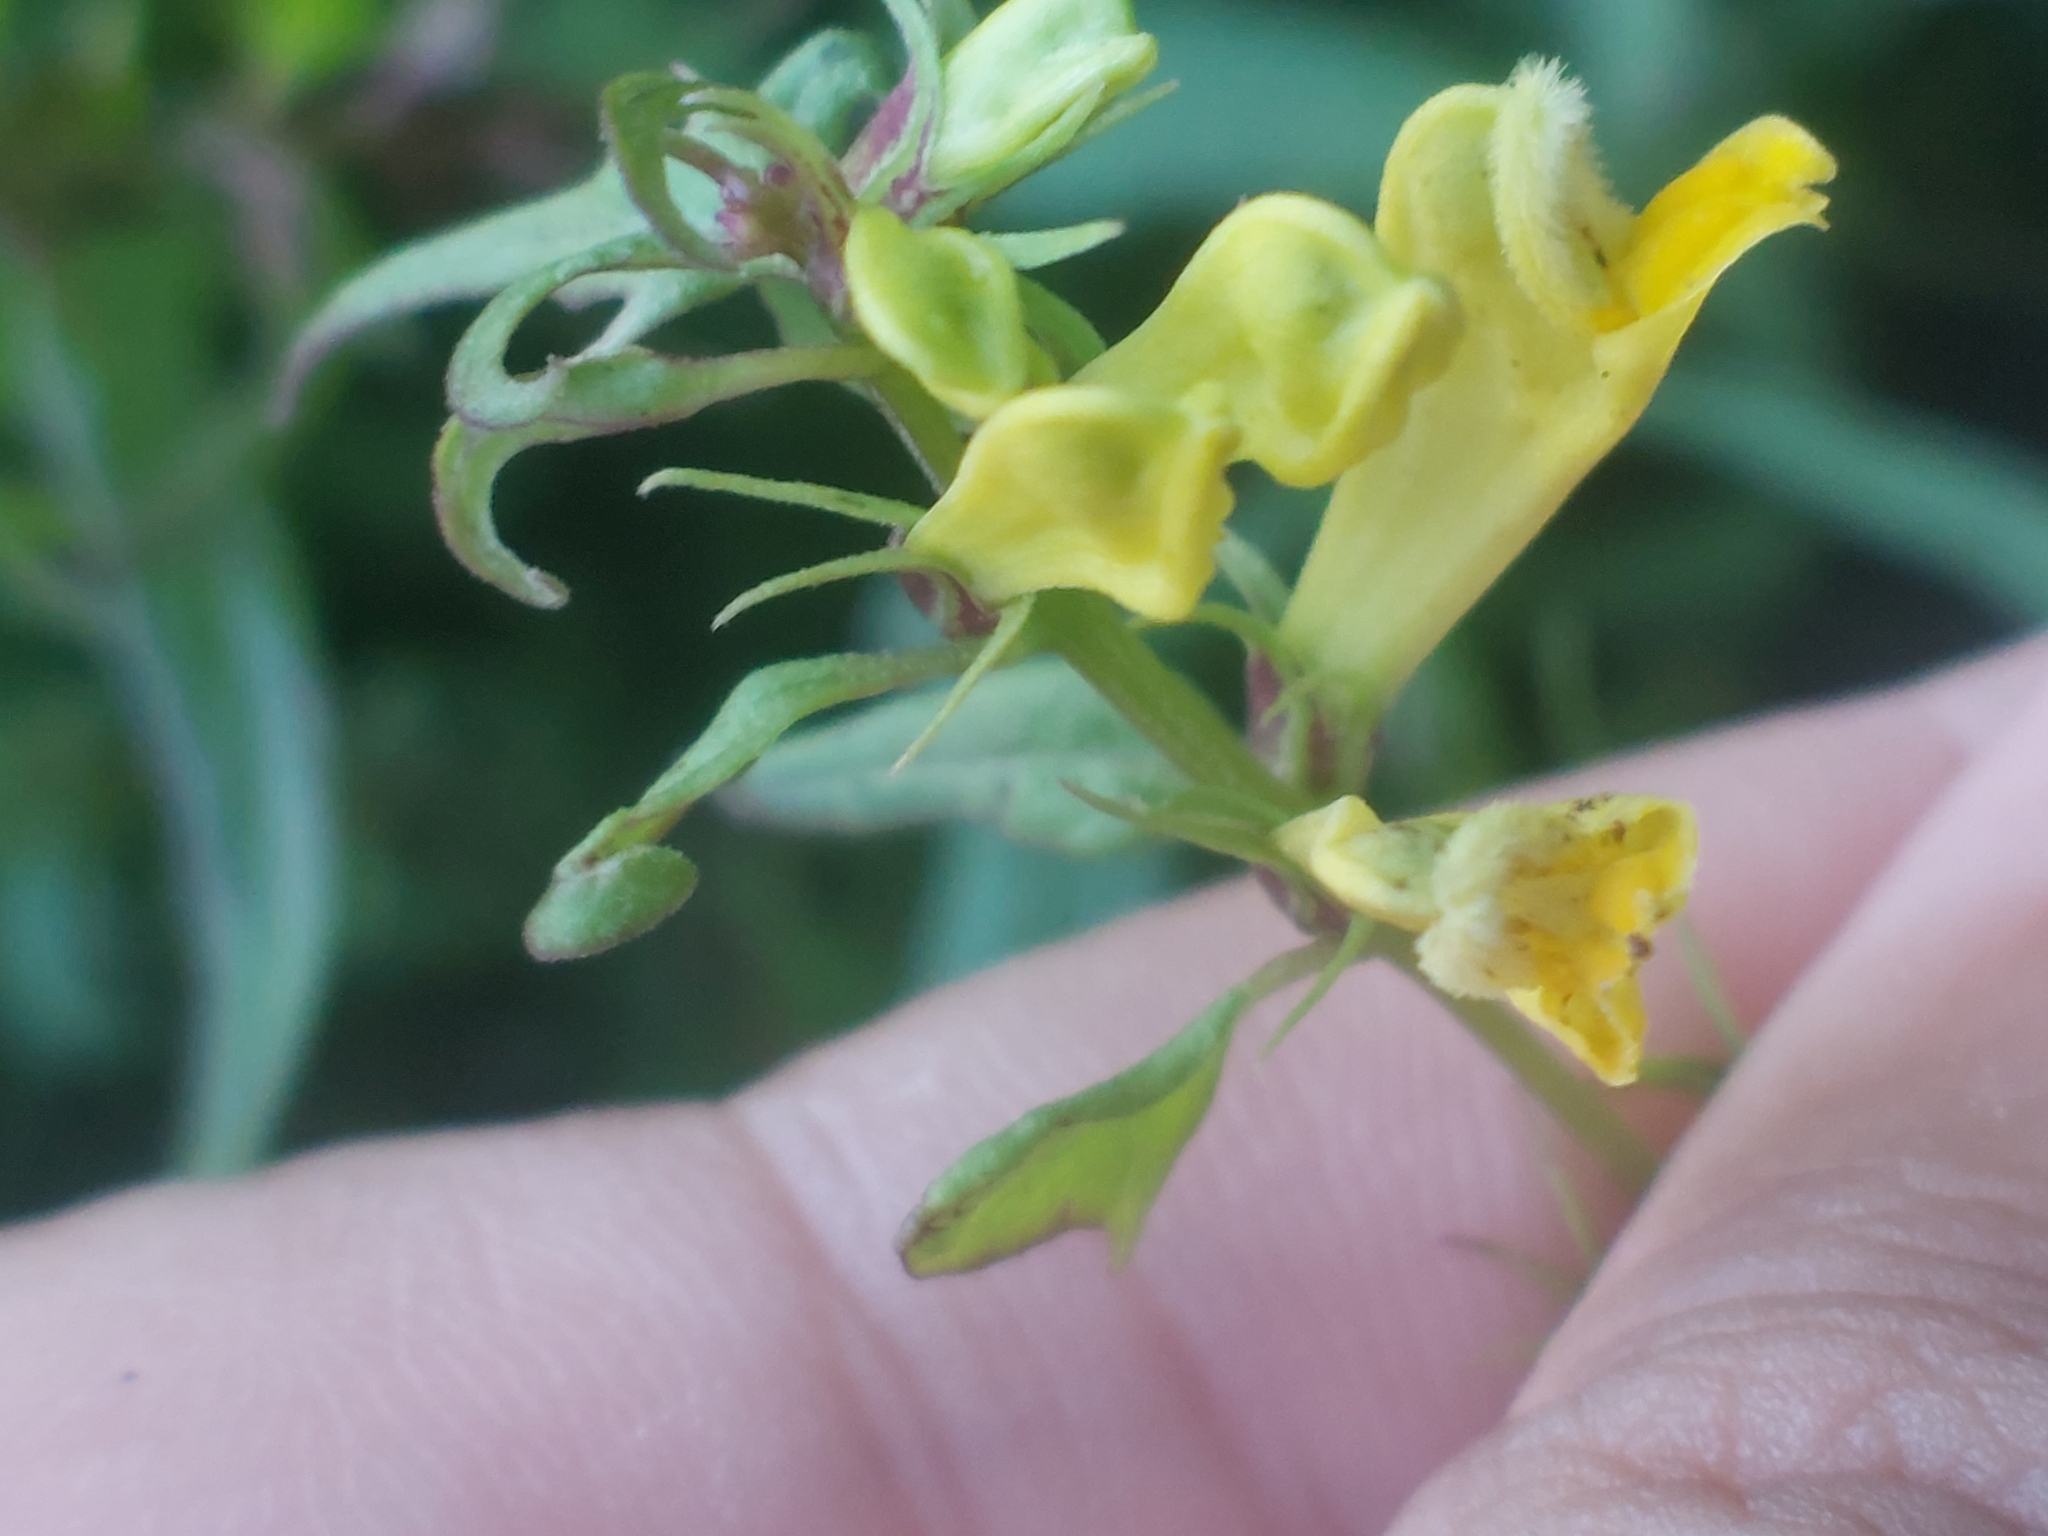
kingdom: Plantae
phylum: Tracheophyta
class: Magnoliopsida
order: Lamiales
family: Orobanchaceae
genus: Melampyrum
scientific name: Melampyrum pratense
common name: Common cow-wheat
